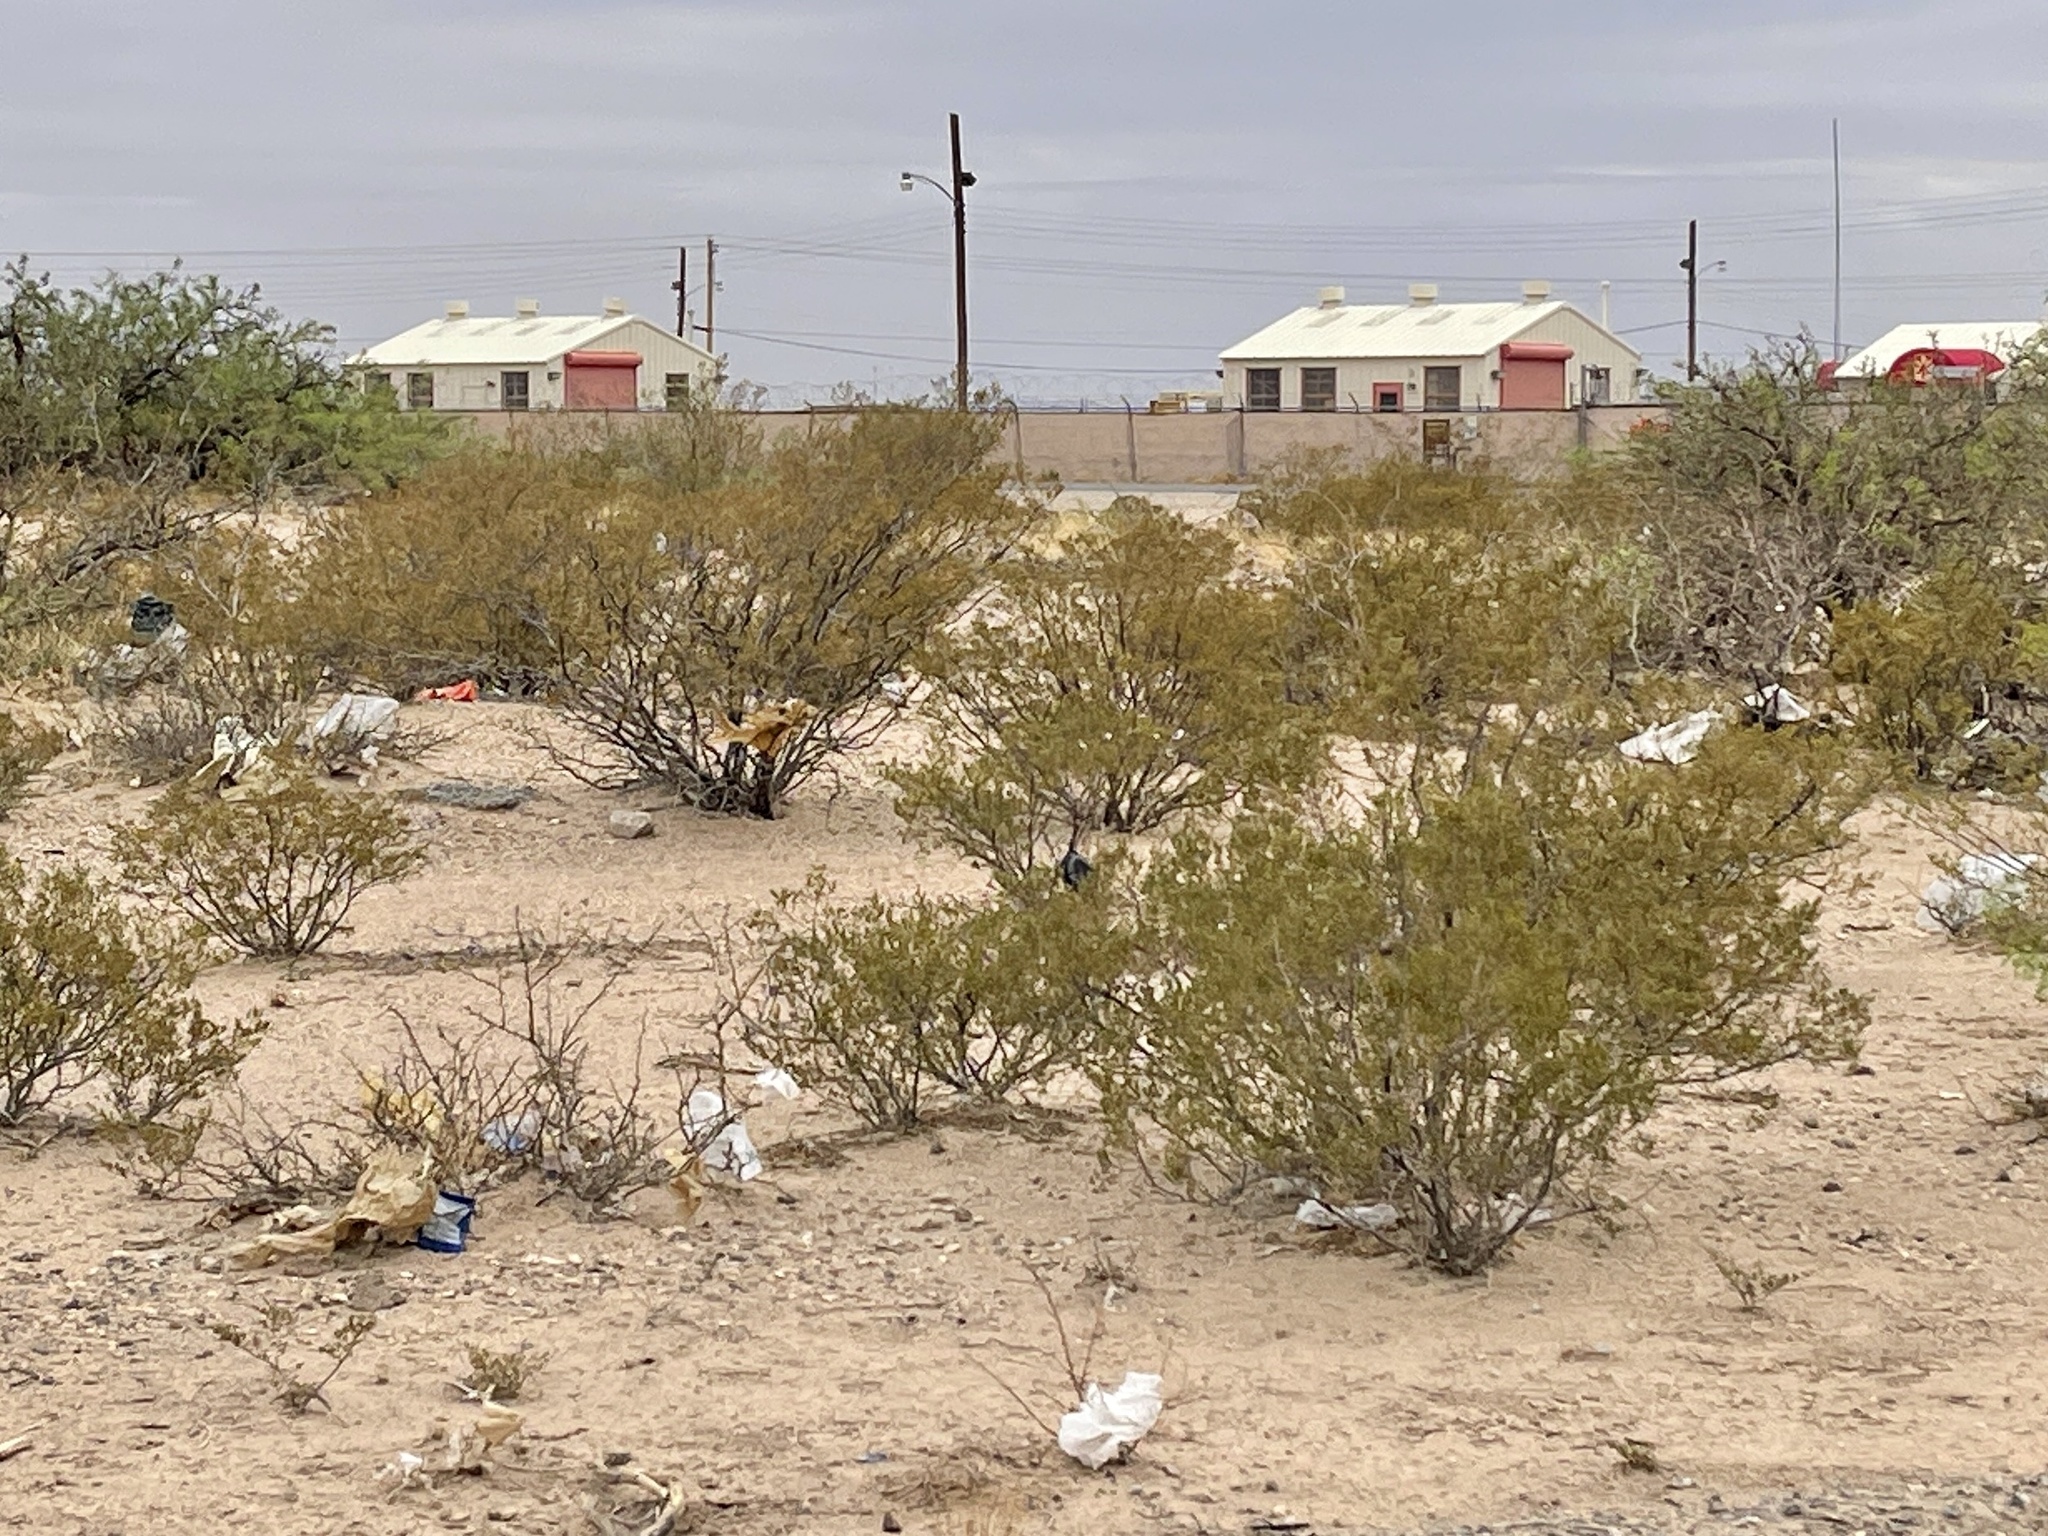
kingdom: Plantae
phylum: Tracheophyta
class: Magnoliopsida
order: Zygophyllales
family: Zygophyllaceae
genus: Larrea
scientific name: Larrea tridentata
